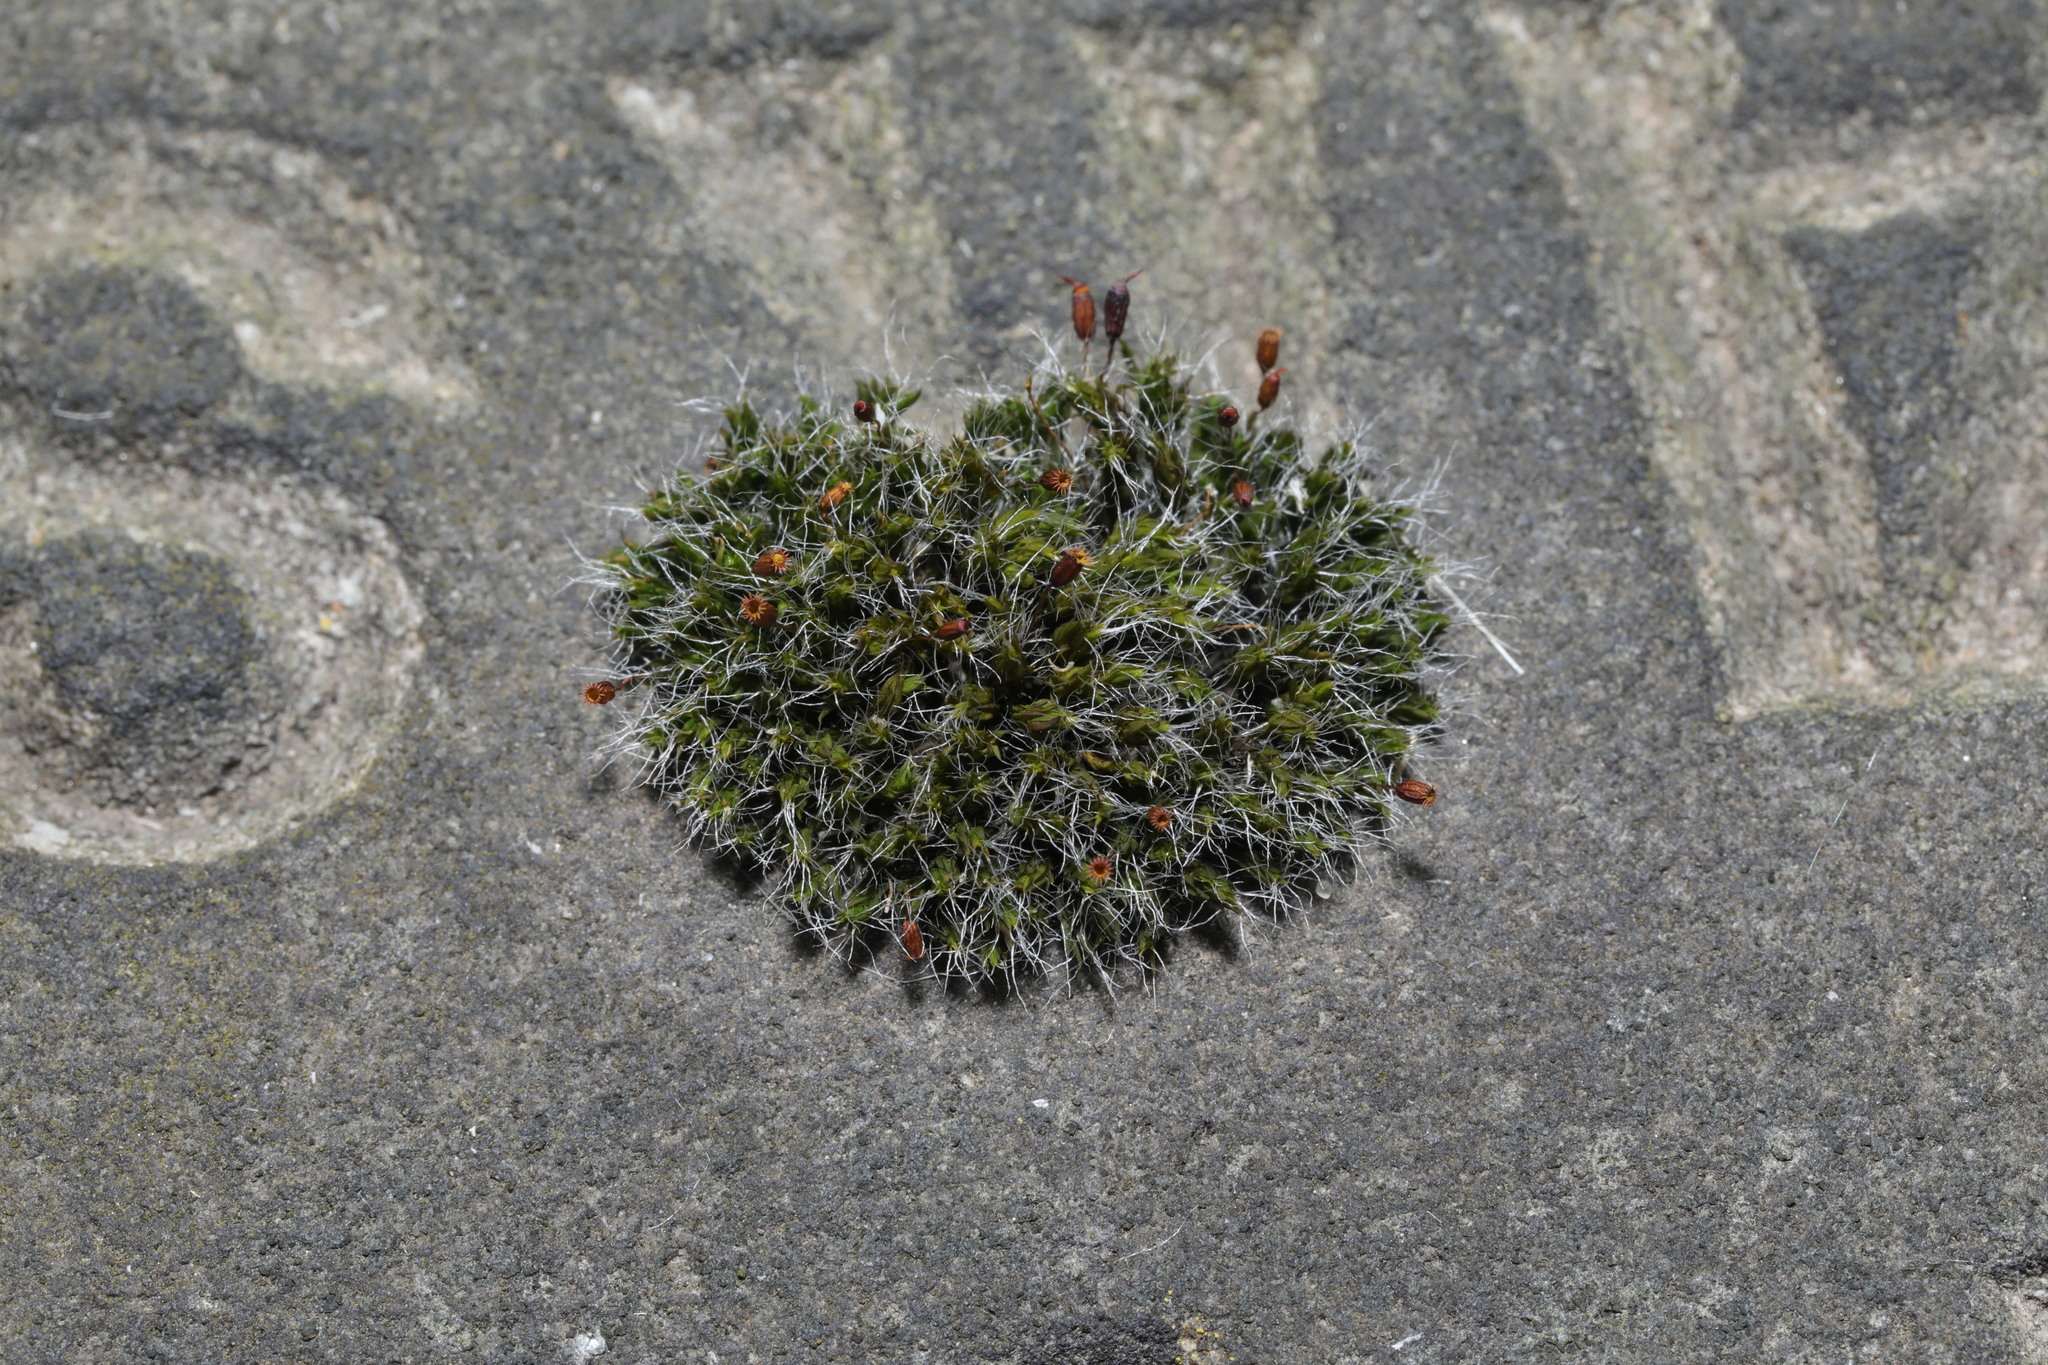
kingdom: Plantae
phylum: Bryophyta
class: Bryopsida
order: Grimmiales
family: Grimmiaceae
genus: Grimmia
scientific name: Grimmia pulvinata
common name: Grey-cushioned grimmia
